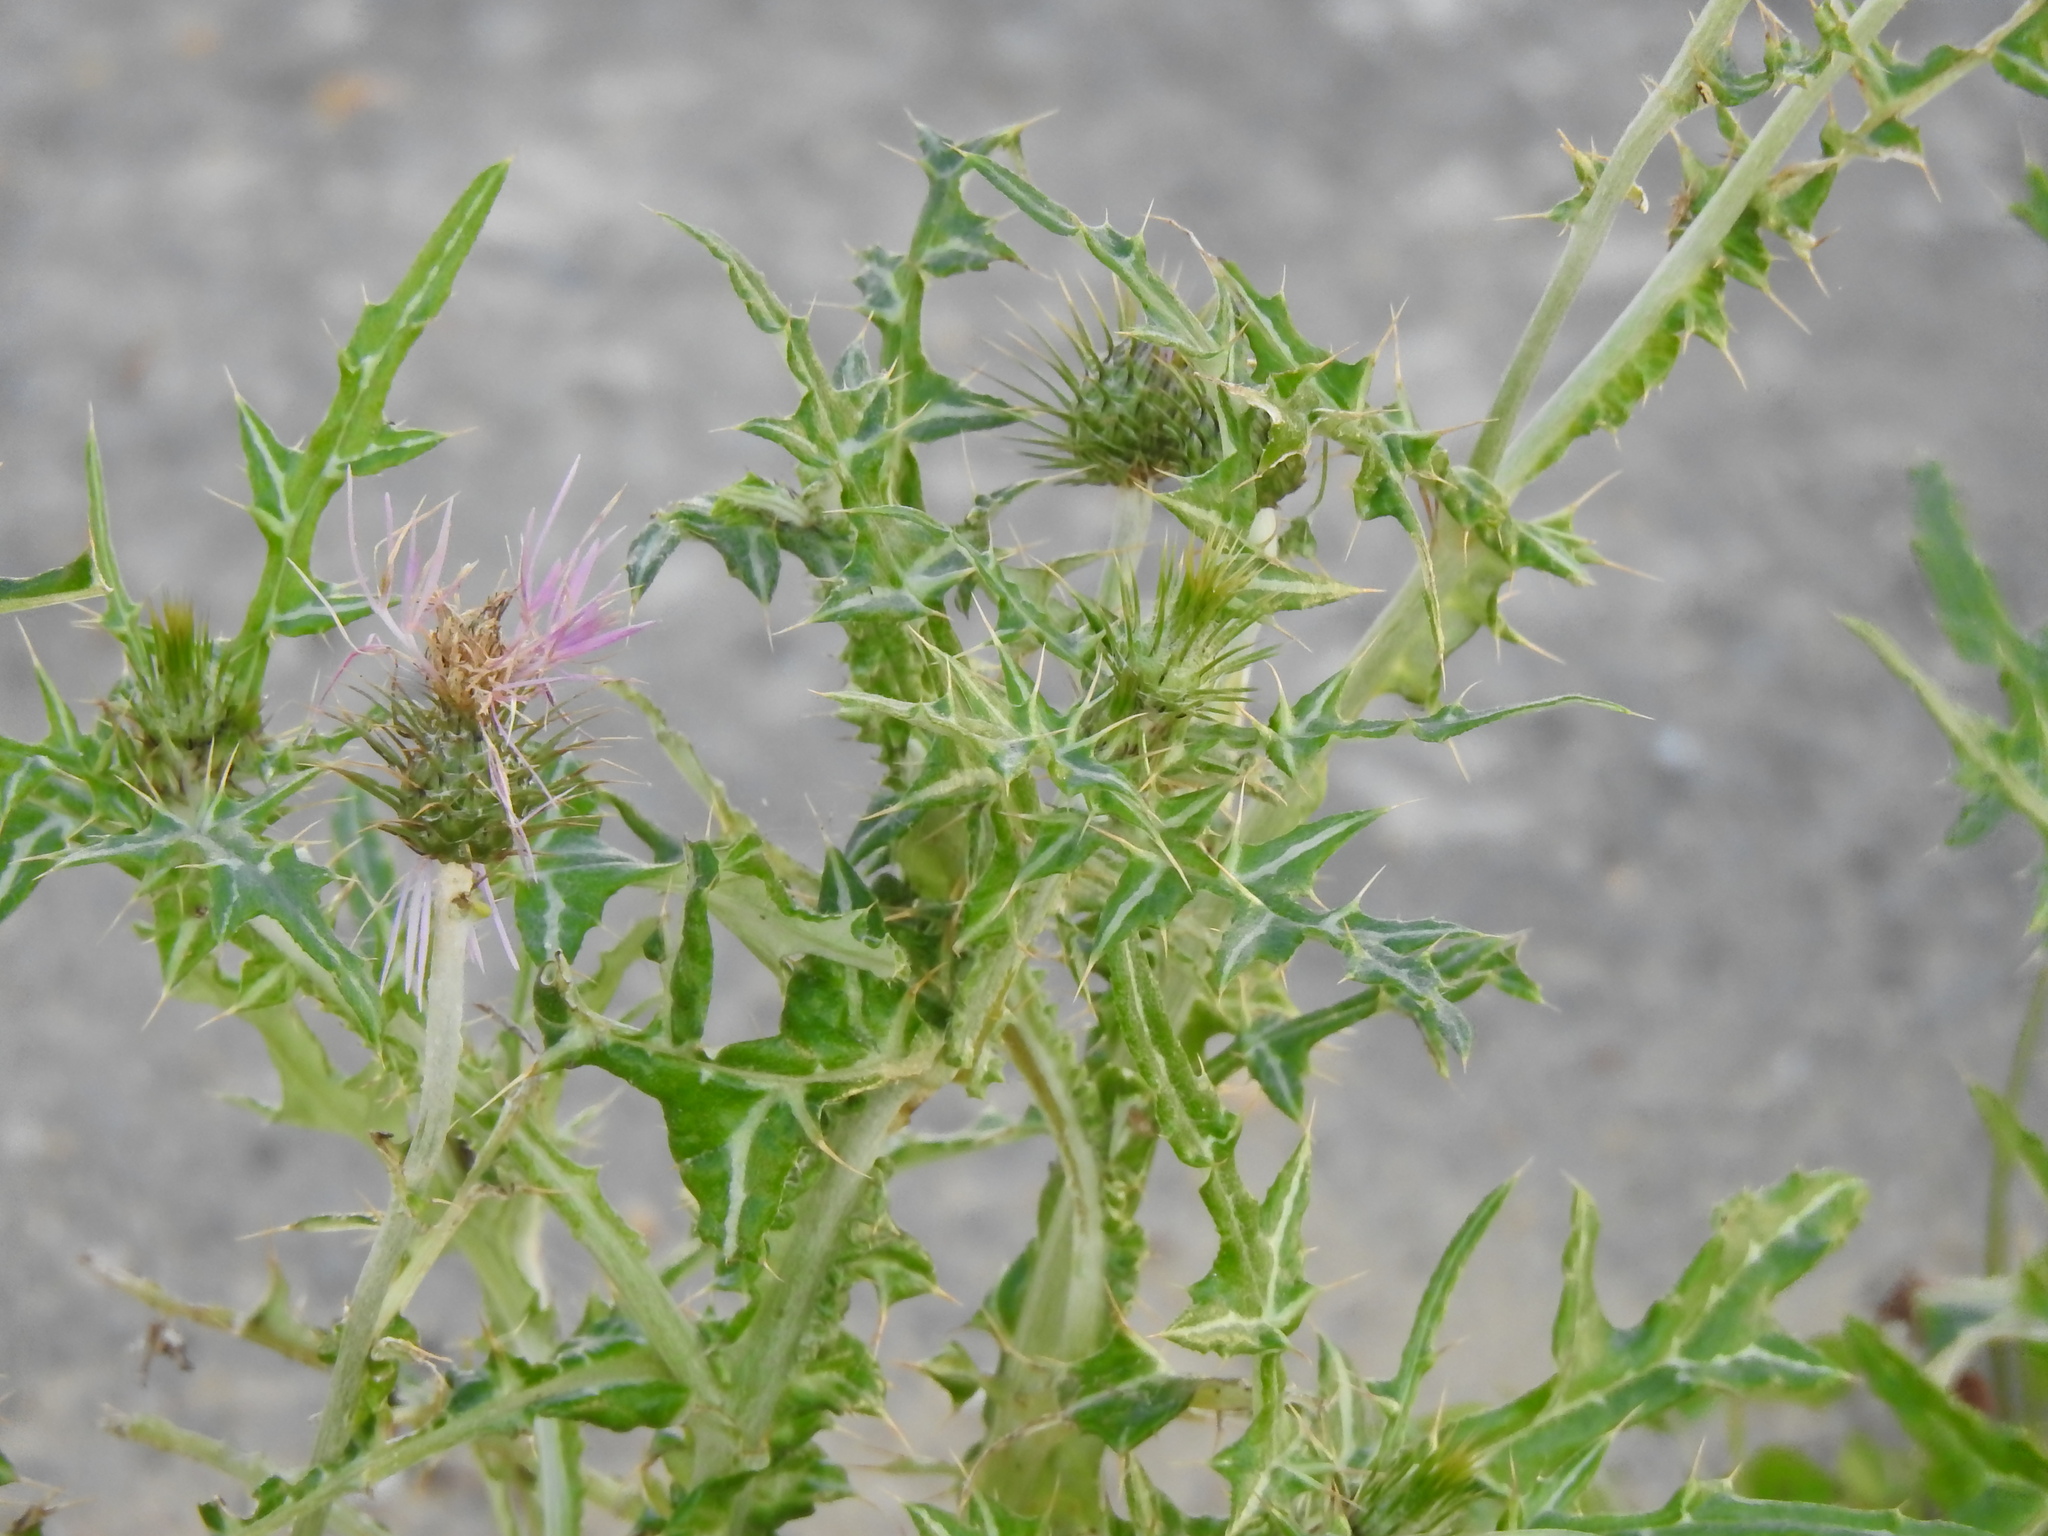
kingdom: Plantae
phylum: Tracheophyta
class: Magnoliopsida
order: Asterales
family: Asteraceae
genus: Galactites
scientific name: Galactites tomentosa
